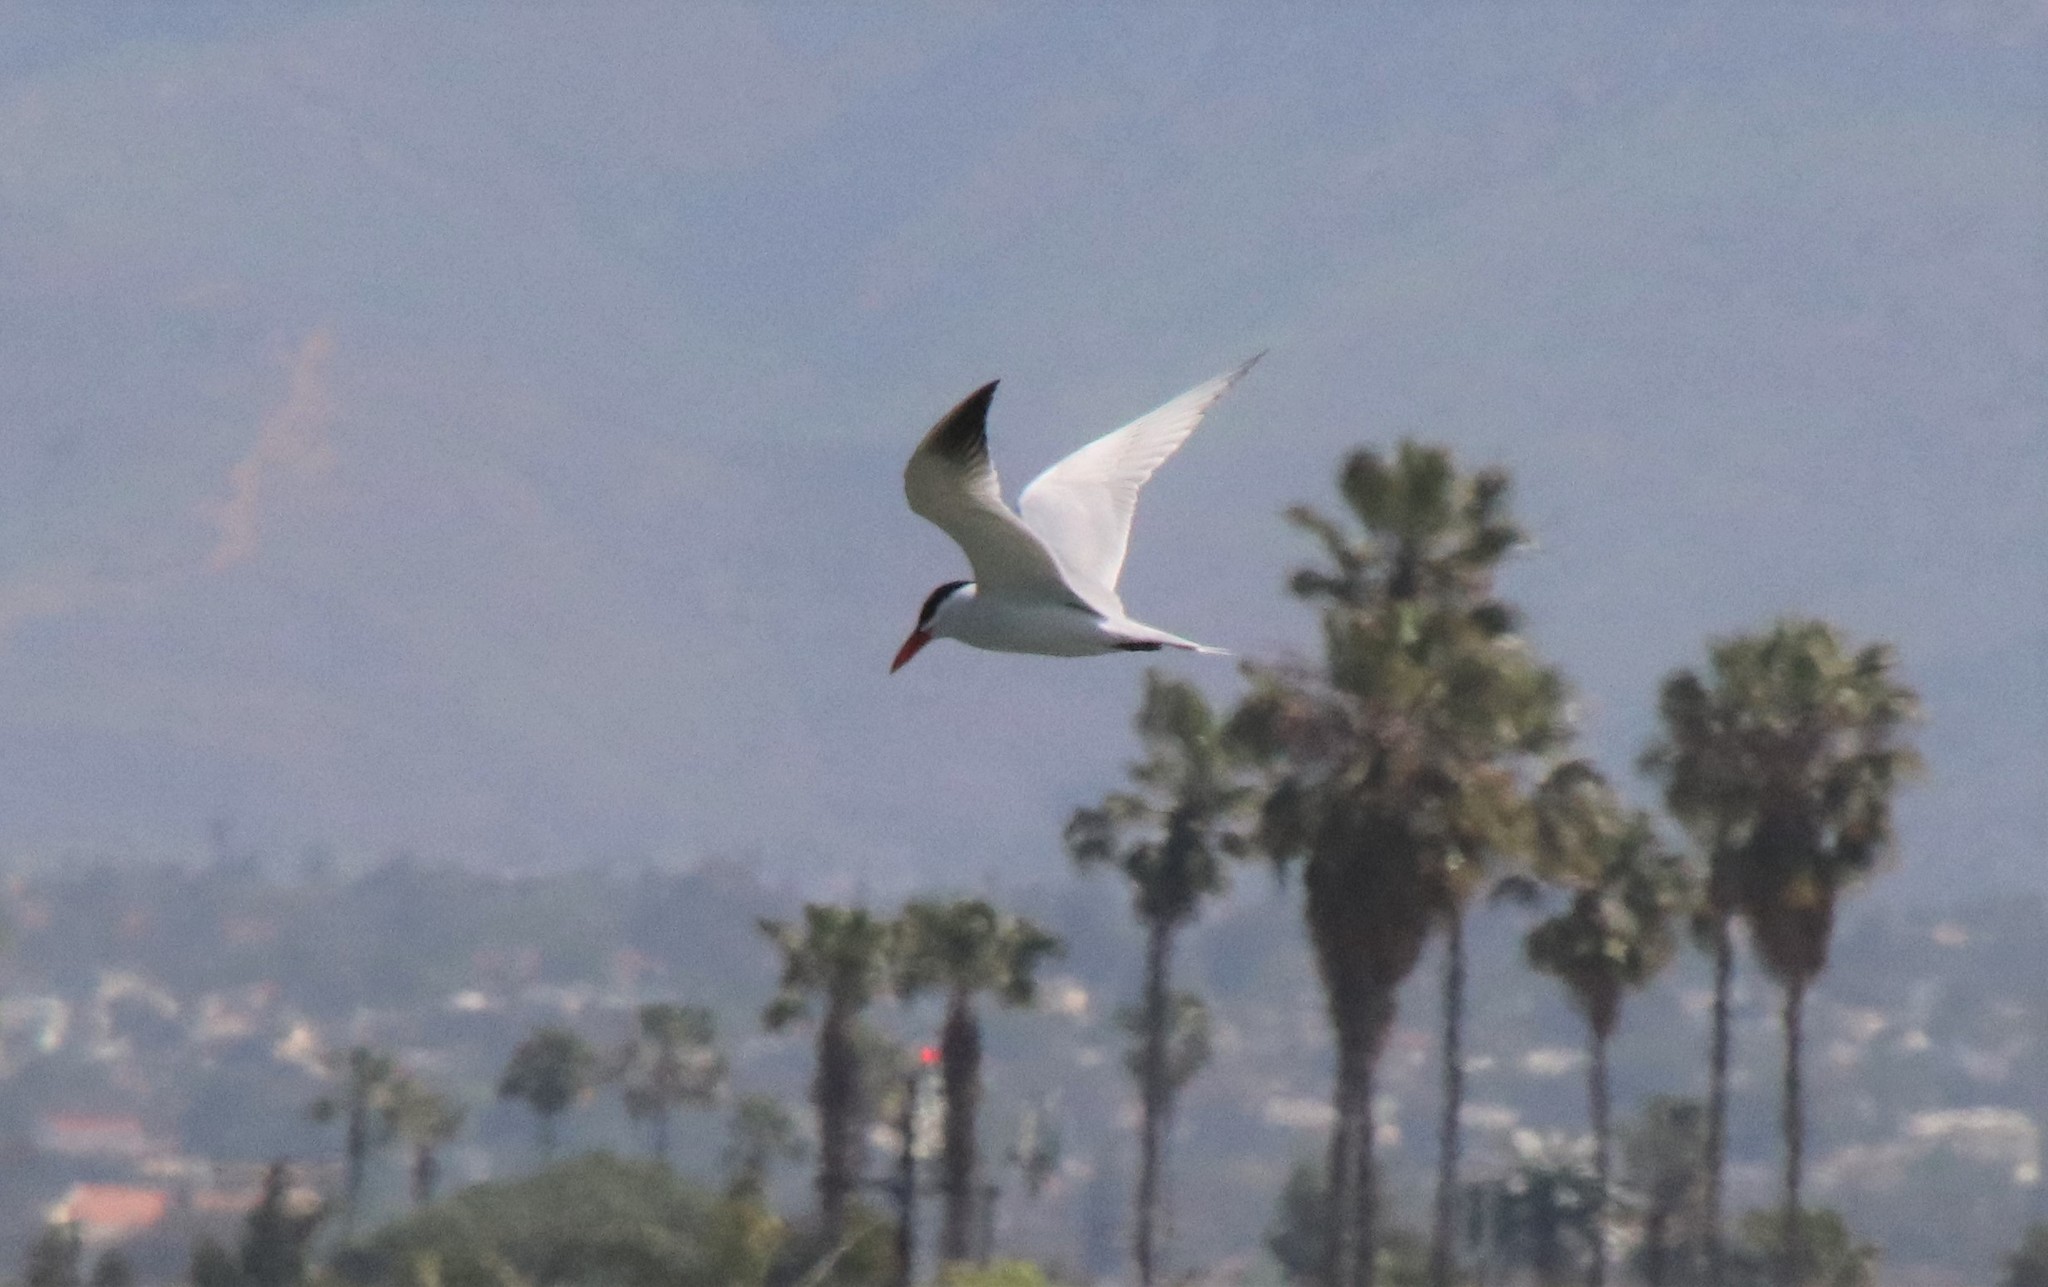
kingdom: Animalia
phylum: Chordata
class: Aves
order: Charadriiformes
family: Laridae
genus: Hydroprogne
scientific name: Hydroprogne caspia
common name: Caspian tern
